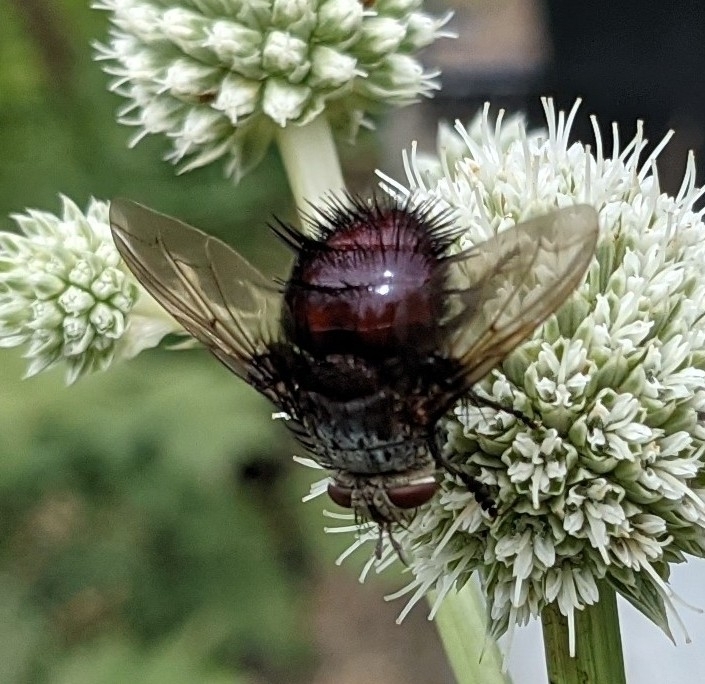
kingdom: Animalia
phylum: Arthropoda
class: Insecta
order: Diptera
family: Tachinidae
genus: Juriniopsis
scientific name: Juriniopsis adusta
